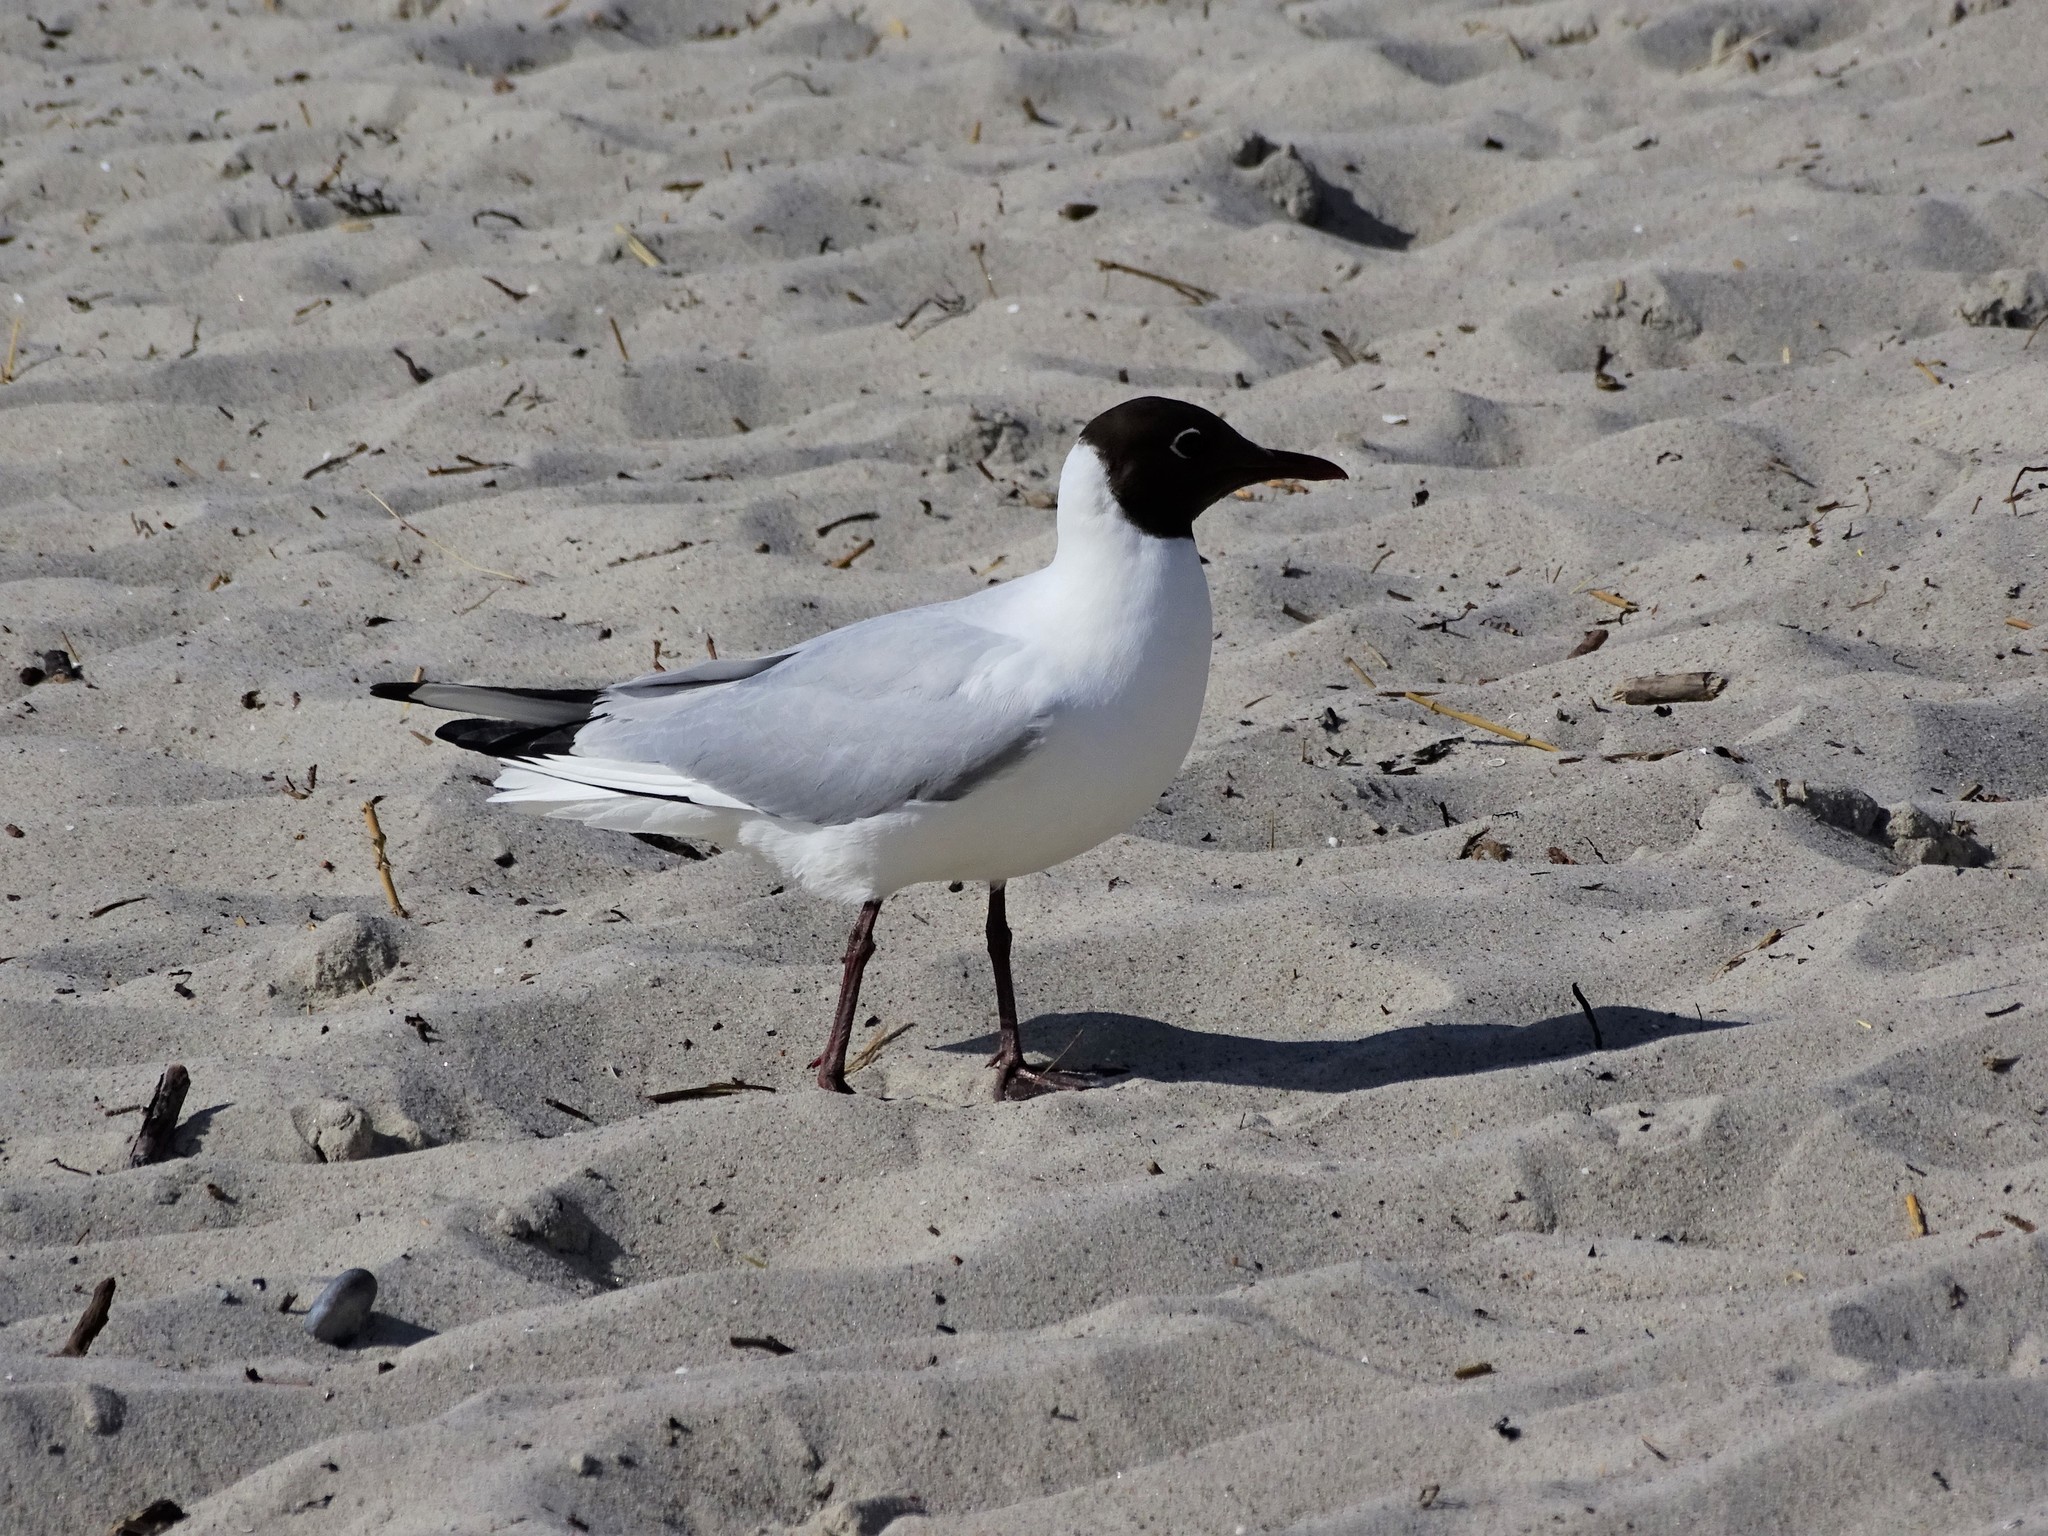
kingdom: Animalia
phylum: Chordata
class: Aves
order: Charadriiformes
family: Laridae
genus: Chroicocephalus
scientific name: Chroicocephalus ridibundus
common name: Black-headed gull
